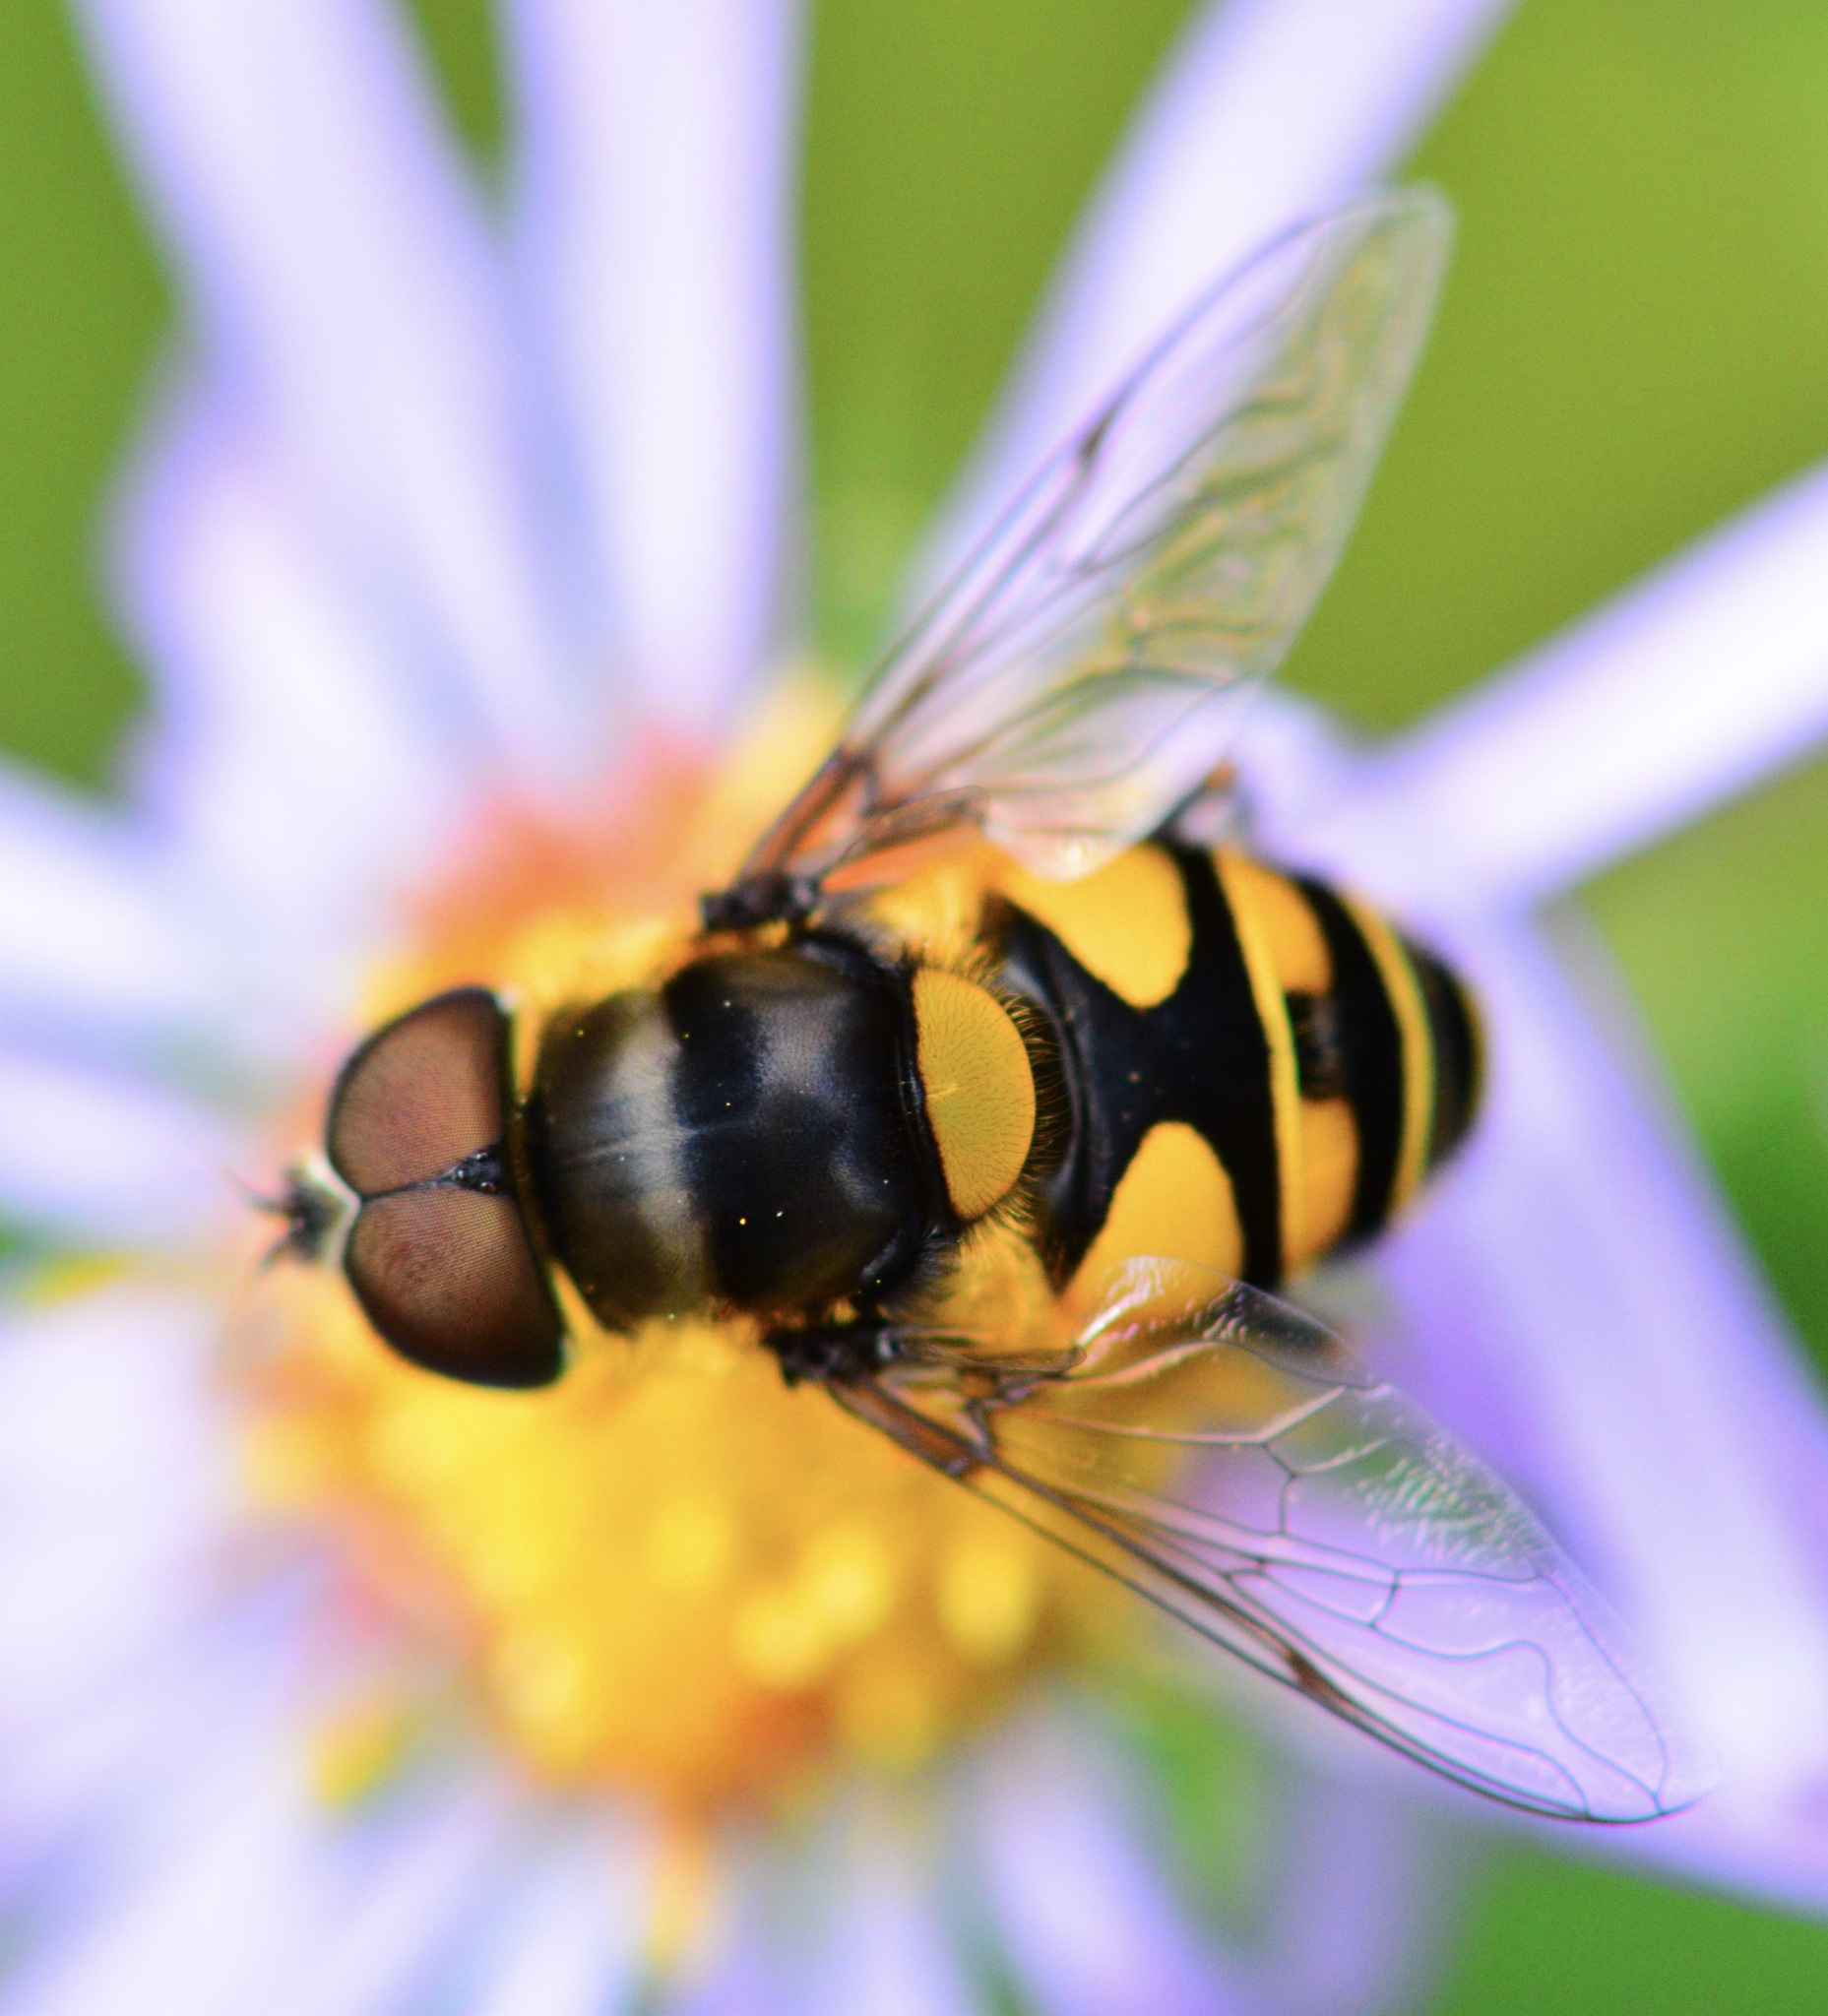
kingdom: Animalia
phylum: Arthropoda
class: Insecta
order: Diptera
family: Syrphidae
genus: Eristalis
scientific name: Eristalis transversa
